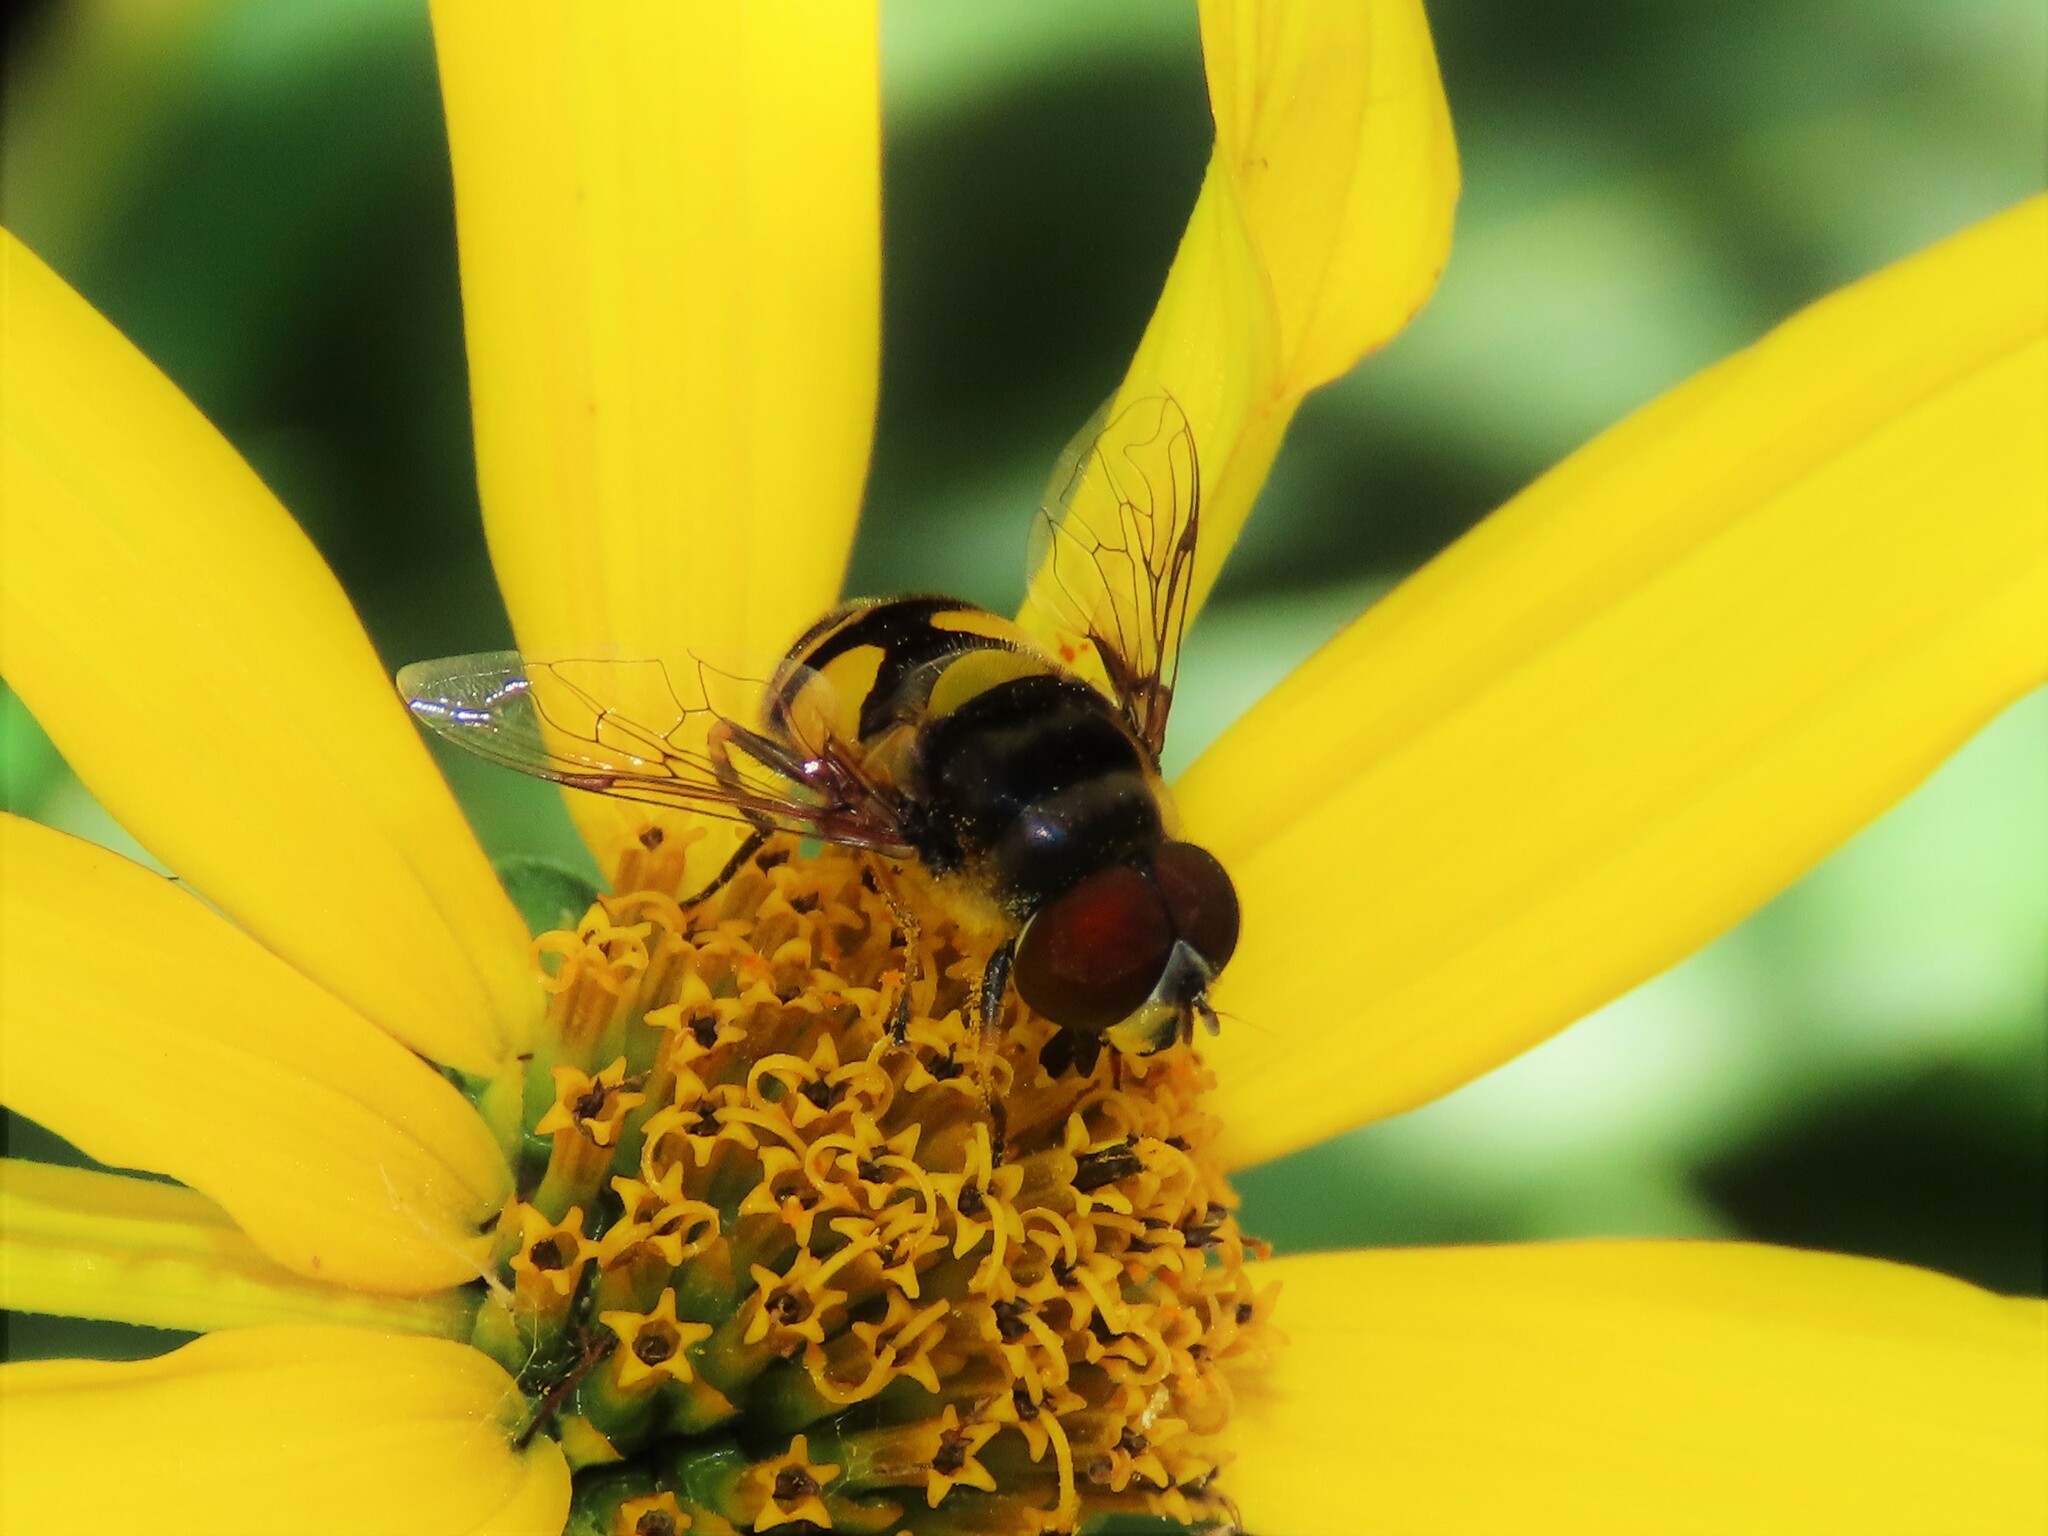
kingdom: Animalia
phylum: Arthropoda
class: Insecta
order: Diptera
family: Syrphidae
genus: Eristalis
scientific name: Eristalis transversa
